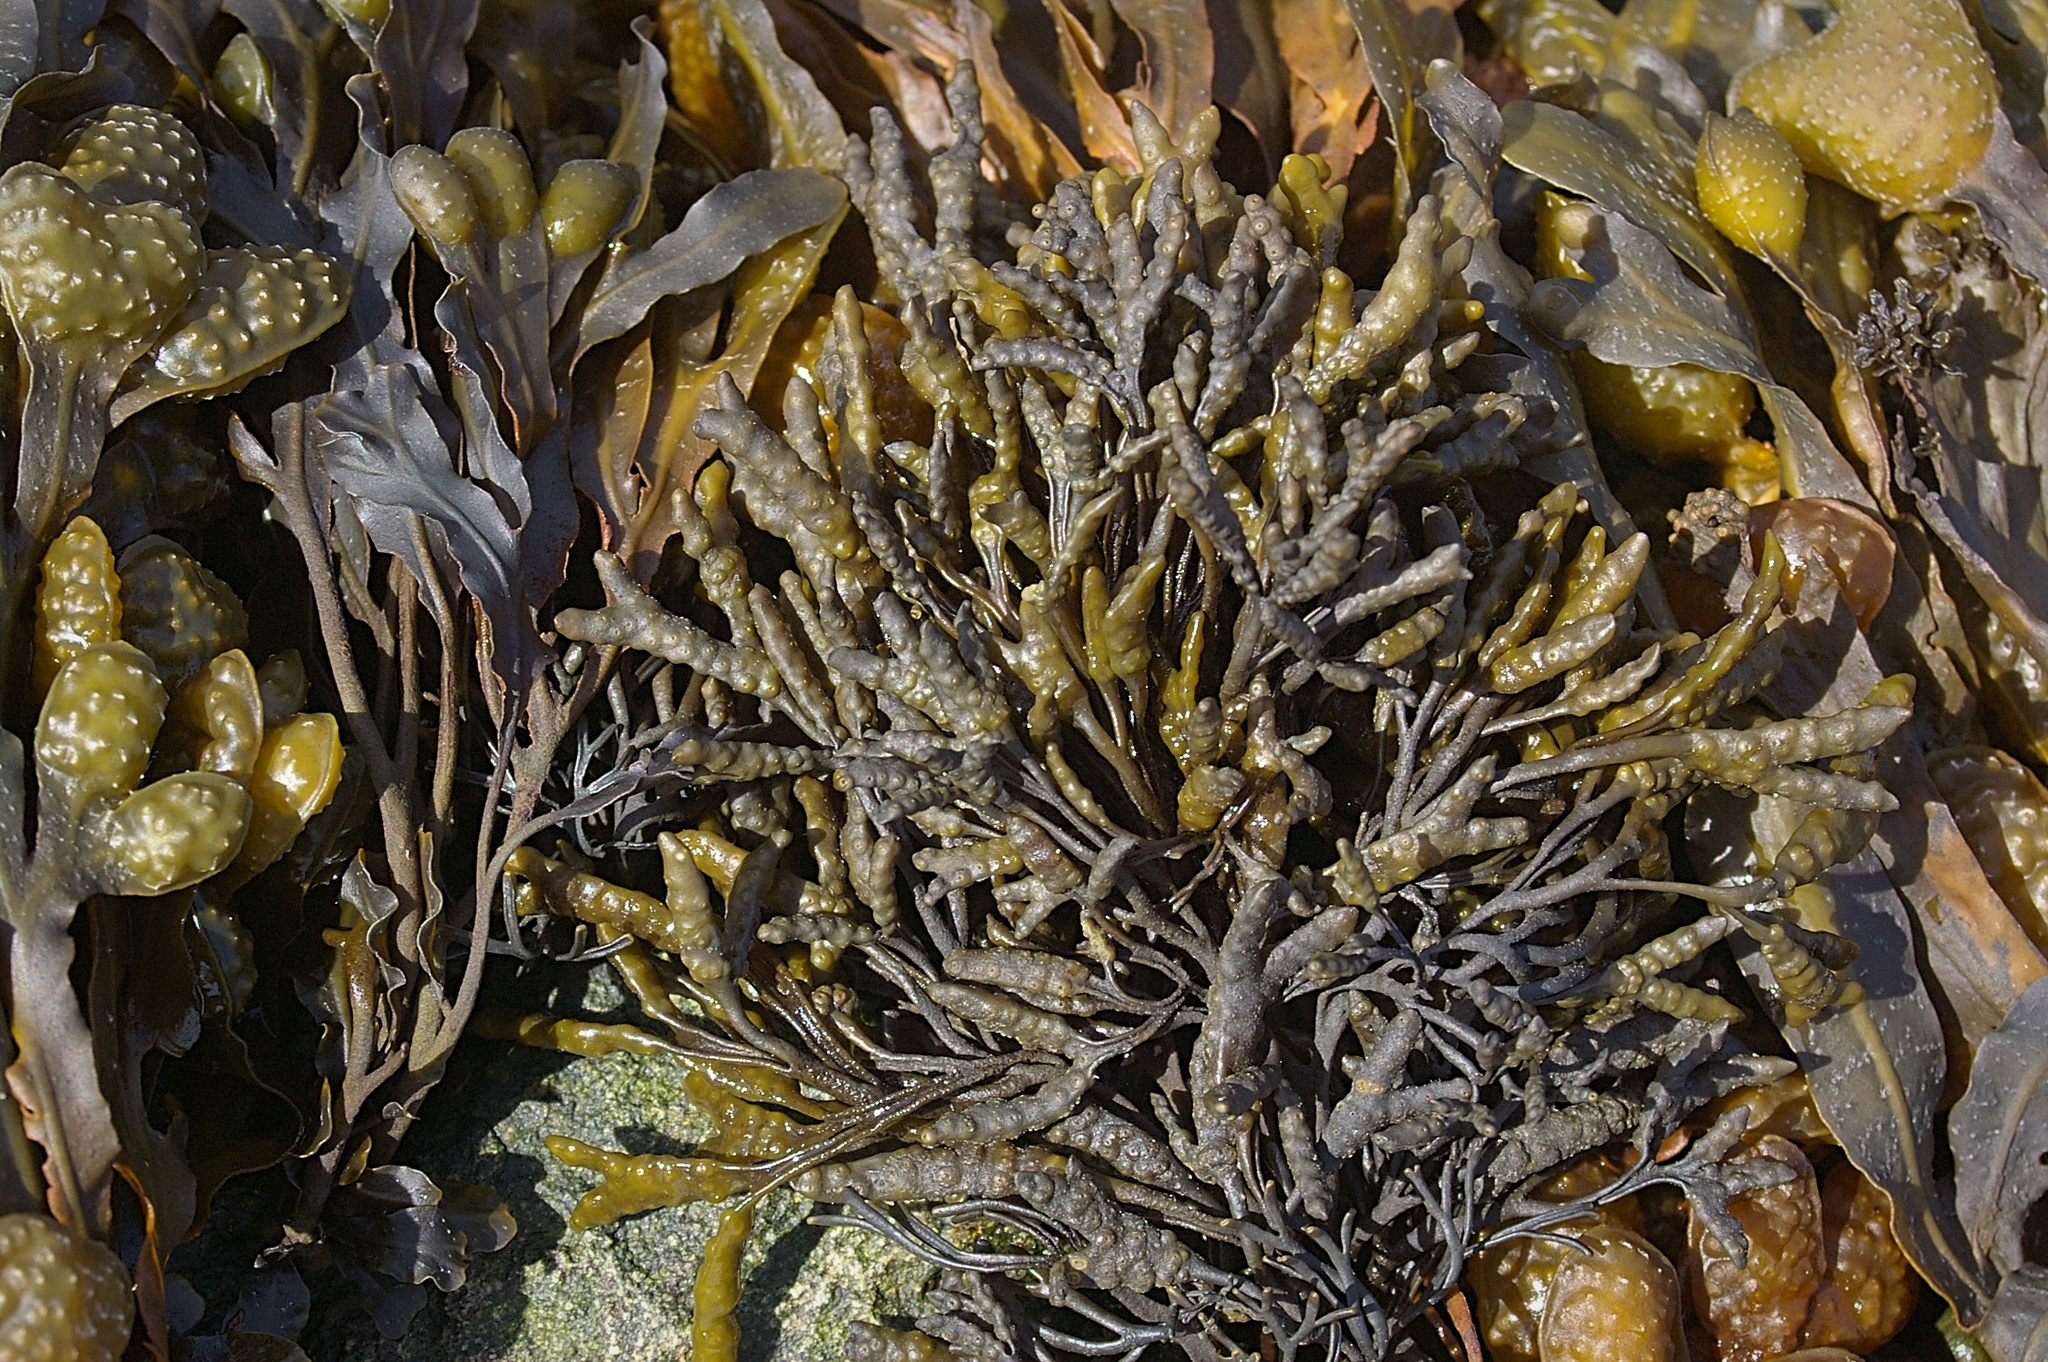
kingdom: Chromista
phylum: Ochrophyta
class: Phaeophyceae
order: Fucales
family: Fucaceae
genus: Fucus
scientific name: Fucus vesiculosus
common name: Bladder wrack
